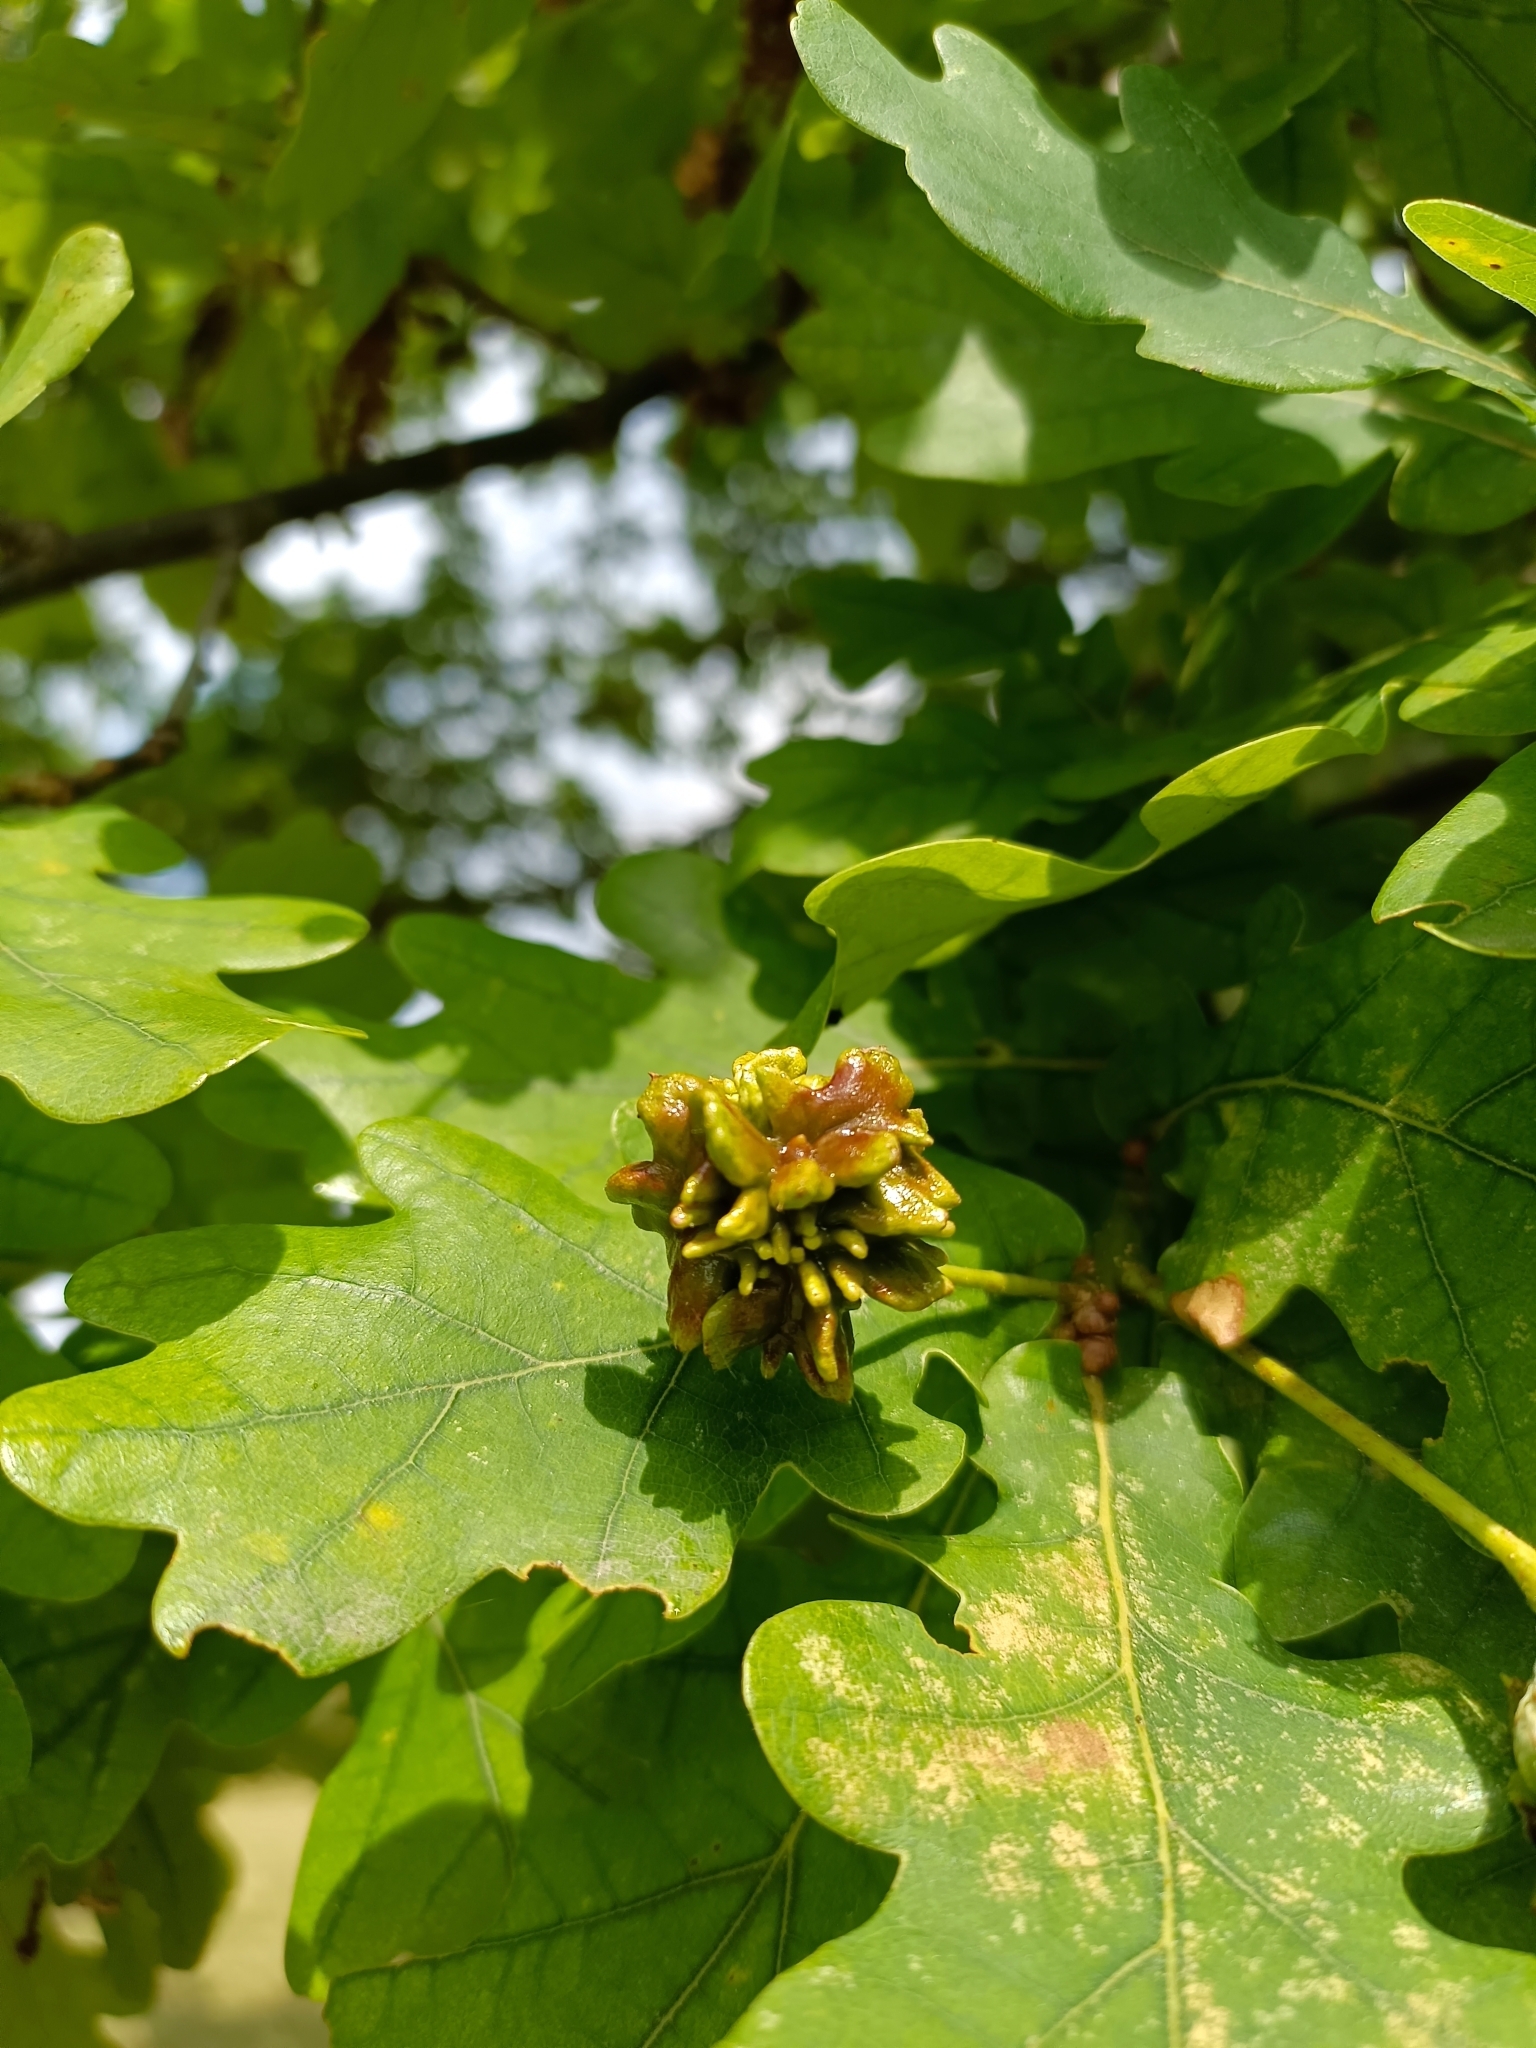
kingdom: Animalia
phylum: Arthropoda
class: Insecta
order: Hymenoptera
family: Cynipidae
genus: Andricus
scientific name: Andricus quercuscalicis
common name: Knopper gall
